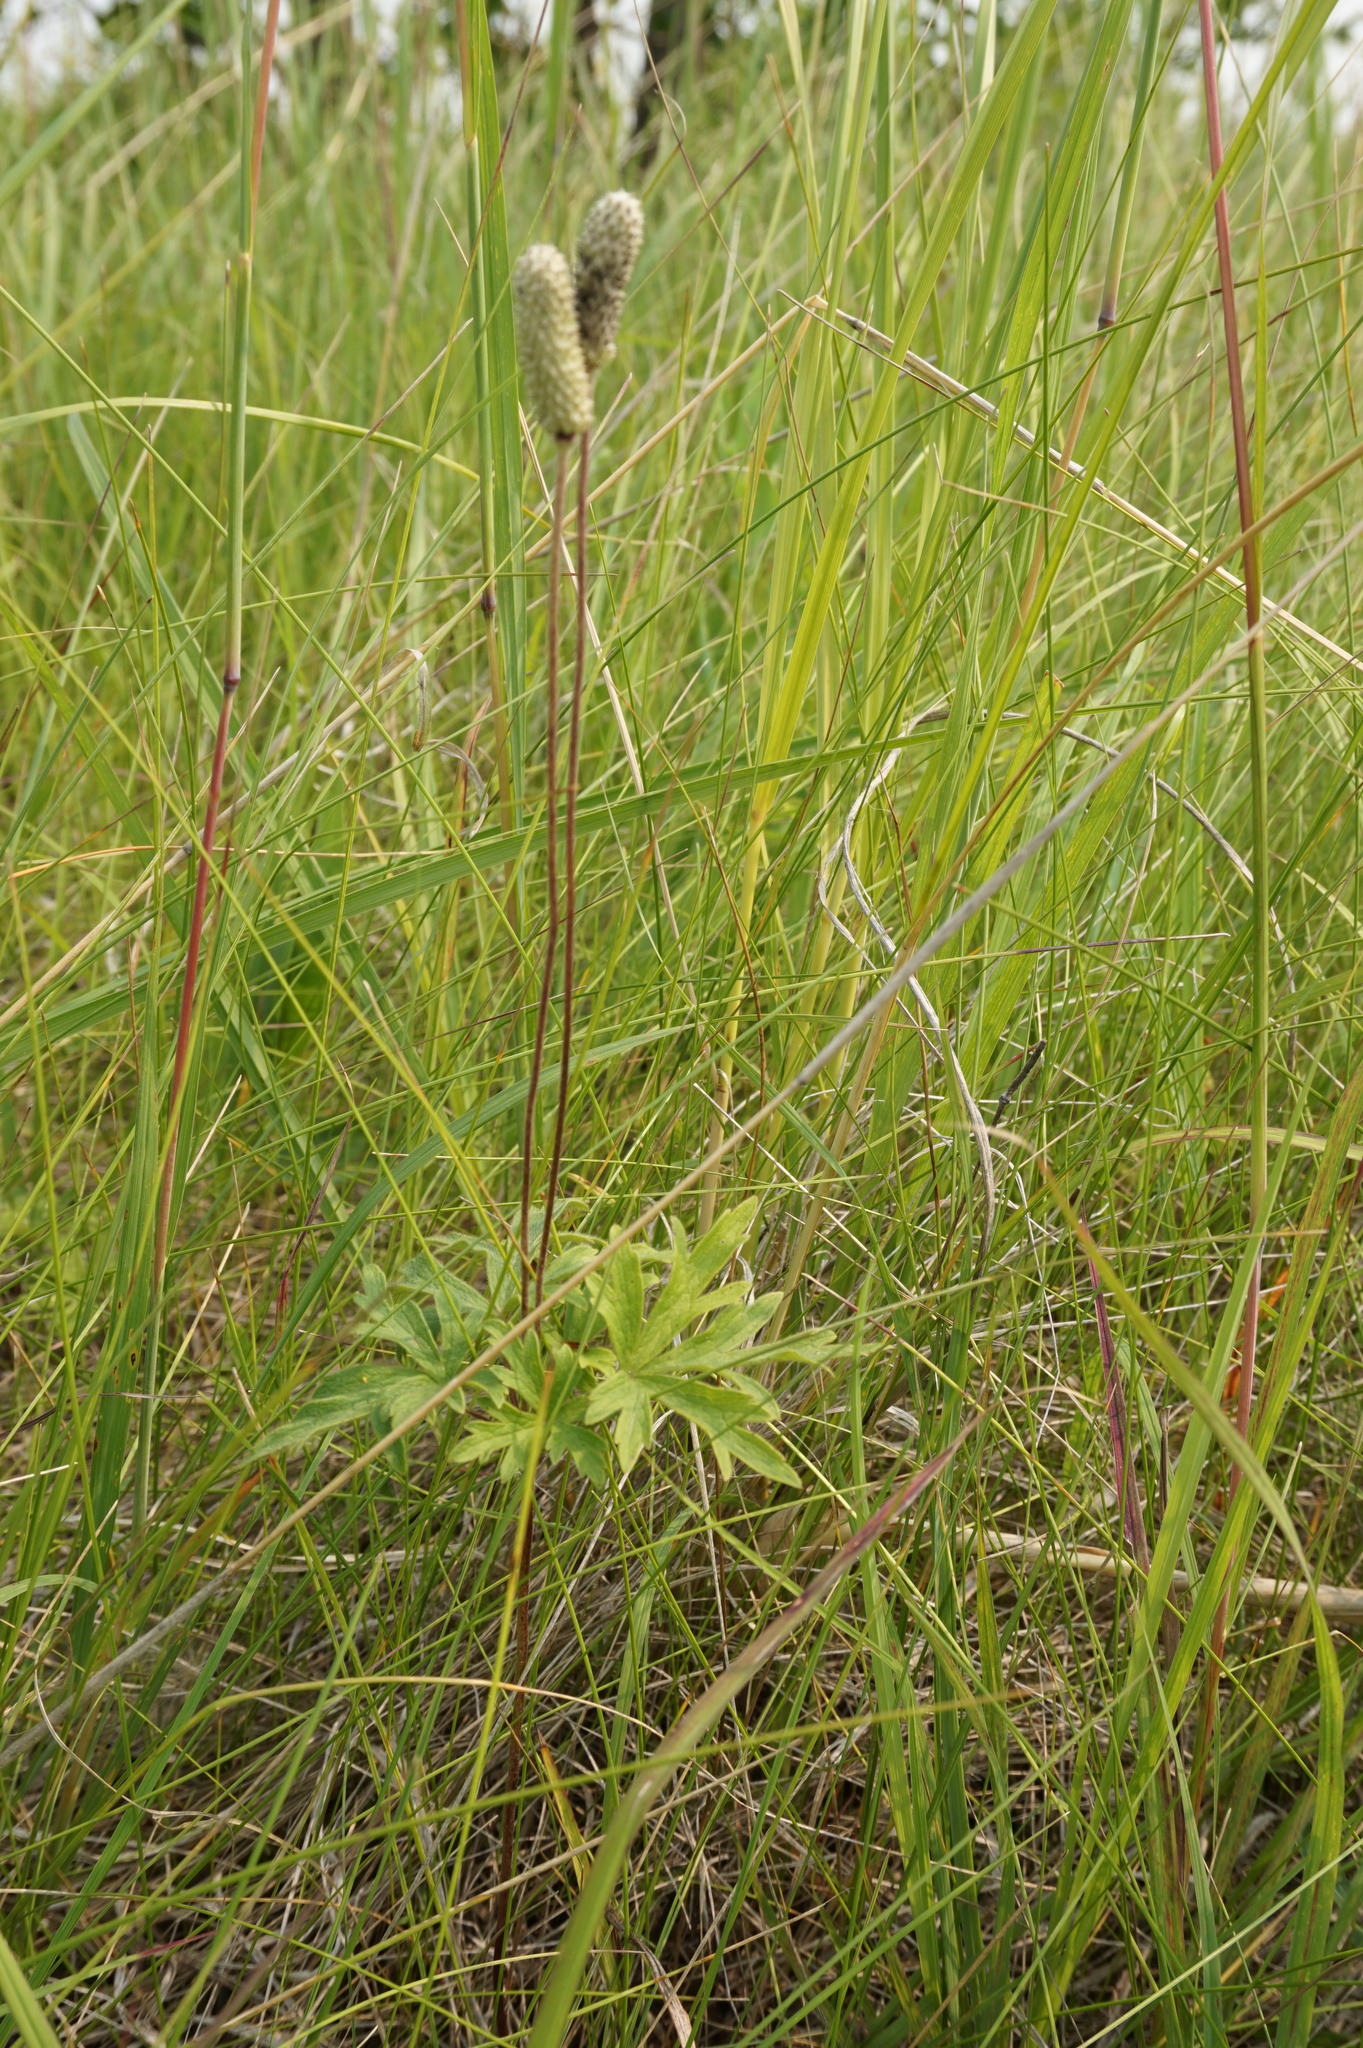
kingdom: Plantae
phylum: Tracheophyta
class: Magnoliopsida
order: Ranunculales
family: Ranunculaceae
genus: Anemone
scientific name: Anemone cylindrica
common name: Candle anemone
